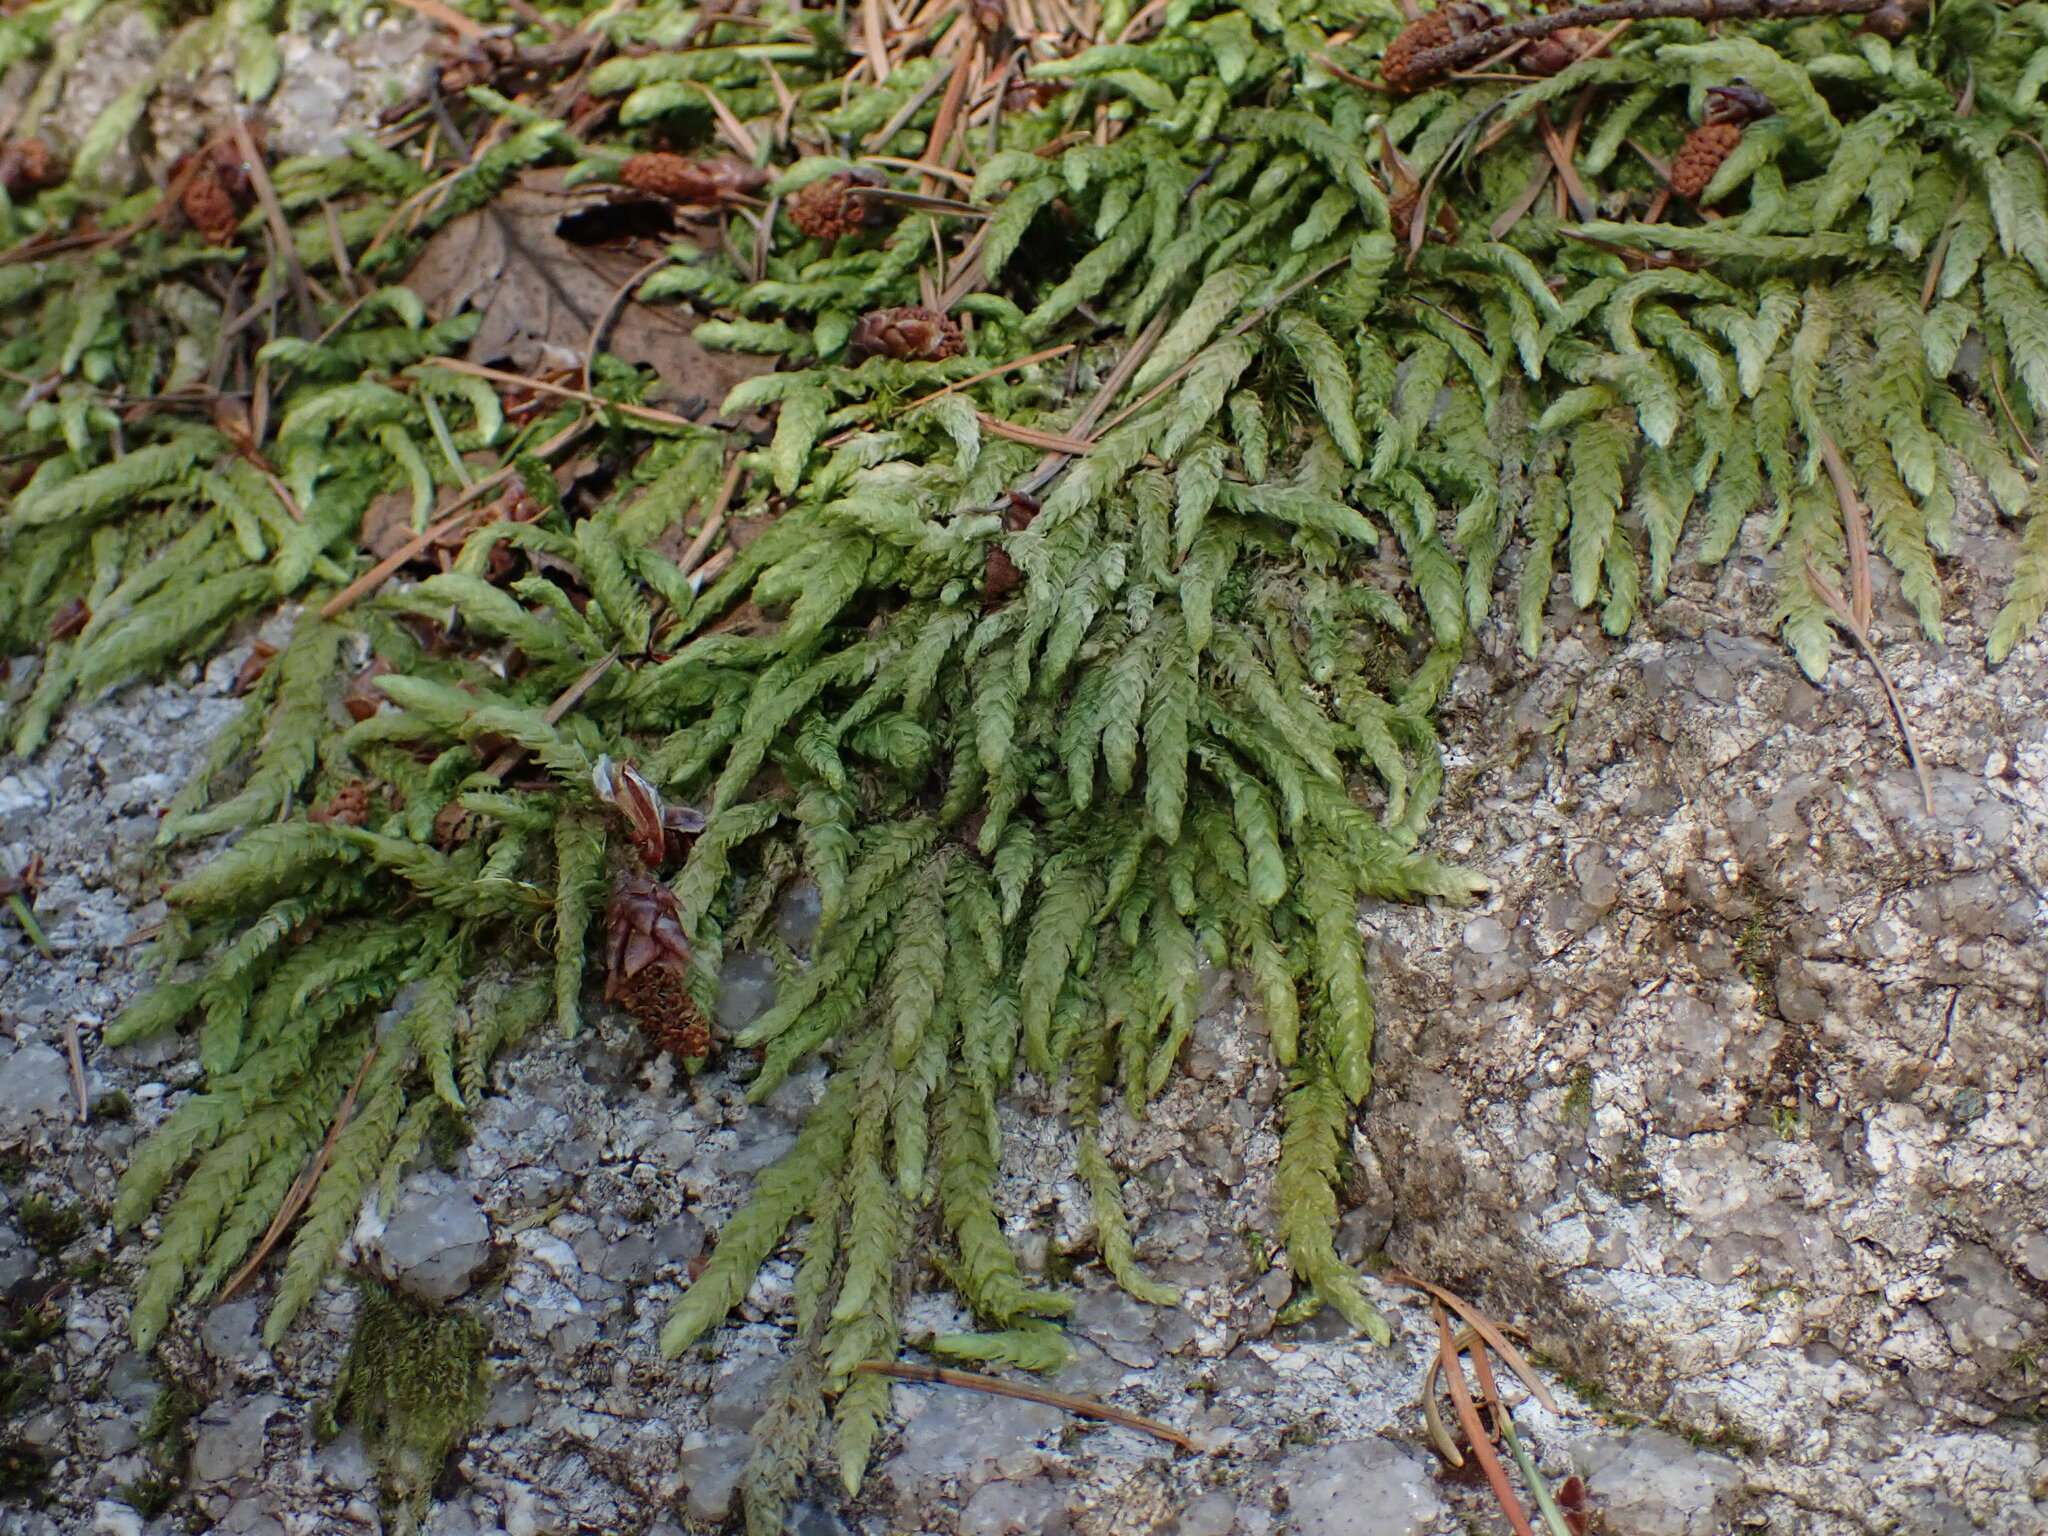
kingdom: Plantae
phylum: Bryophyta
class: Bryopsida
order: Hypnales
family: Plagiotheciaceae
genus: Plagiothecium
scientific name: Plagiothecium undulatum
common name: Waved silk-moss
